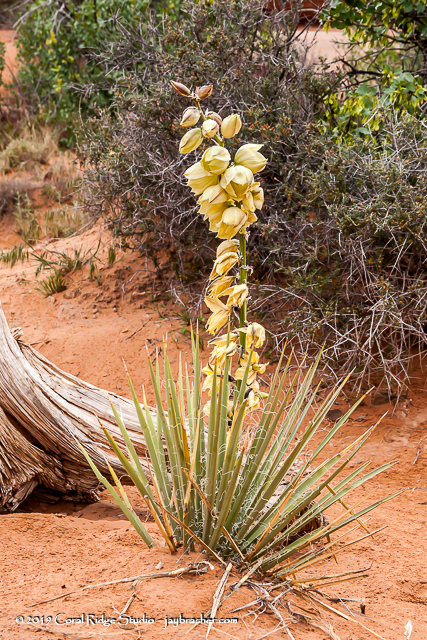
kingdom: Plantae
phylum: Tracheophyta
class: Liliopsida
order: Asparagales
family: Asparagaceae
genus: Yucca
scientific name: Yucca harrimaniae
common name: Harriman's yucca
